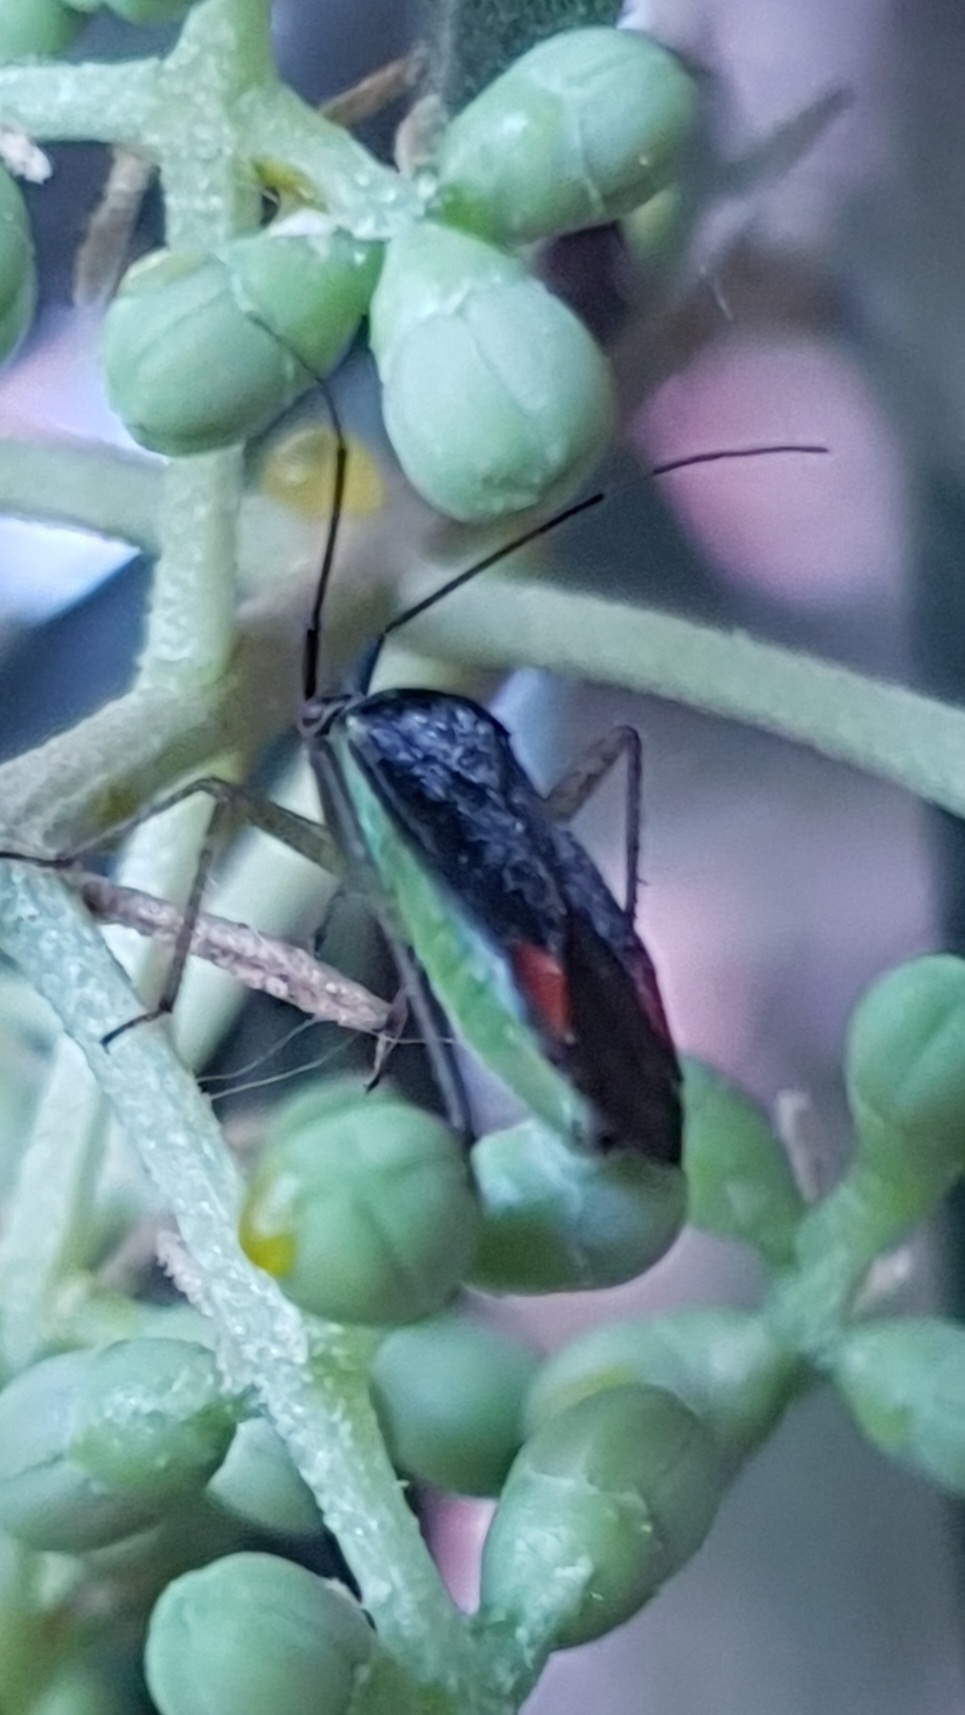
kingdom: Animalia
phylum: Arthropoda
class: Insecta
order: Hemiptera
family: Miridae
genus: Closterotomus
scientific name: Closterotomus trivialis
